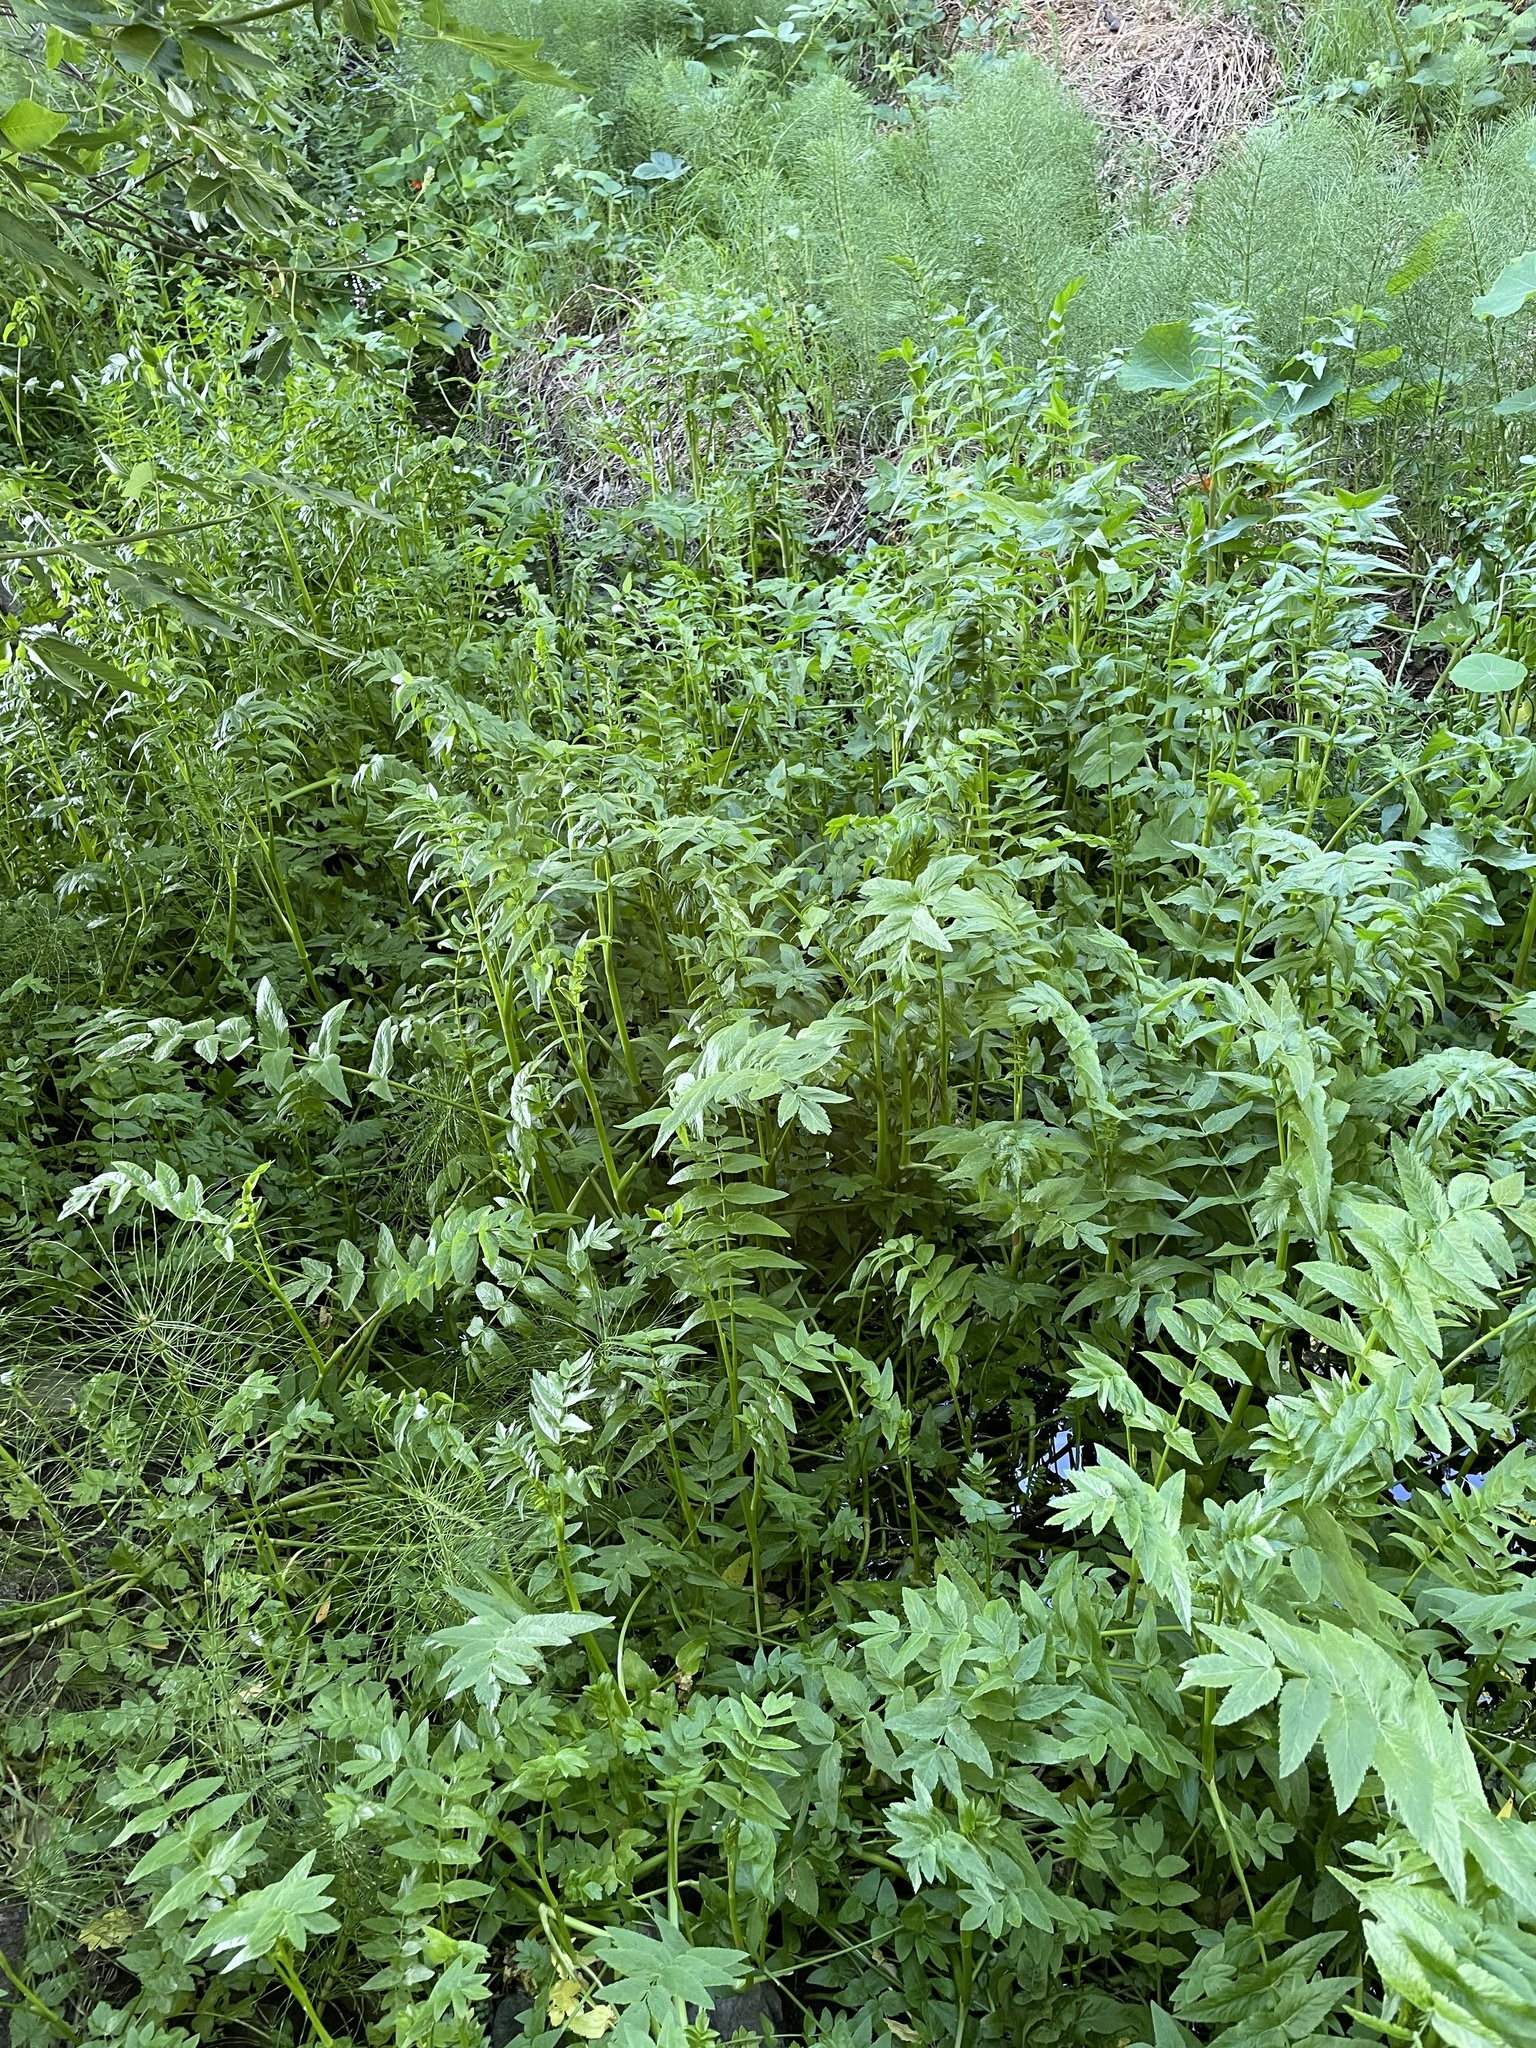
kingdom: Plantae
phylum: Tracheophyta
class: Magnoliopsida
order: Apiales
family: Apiaceae
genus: Berula
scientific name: Berula erecta
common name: Lesser water-parsnip
